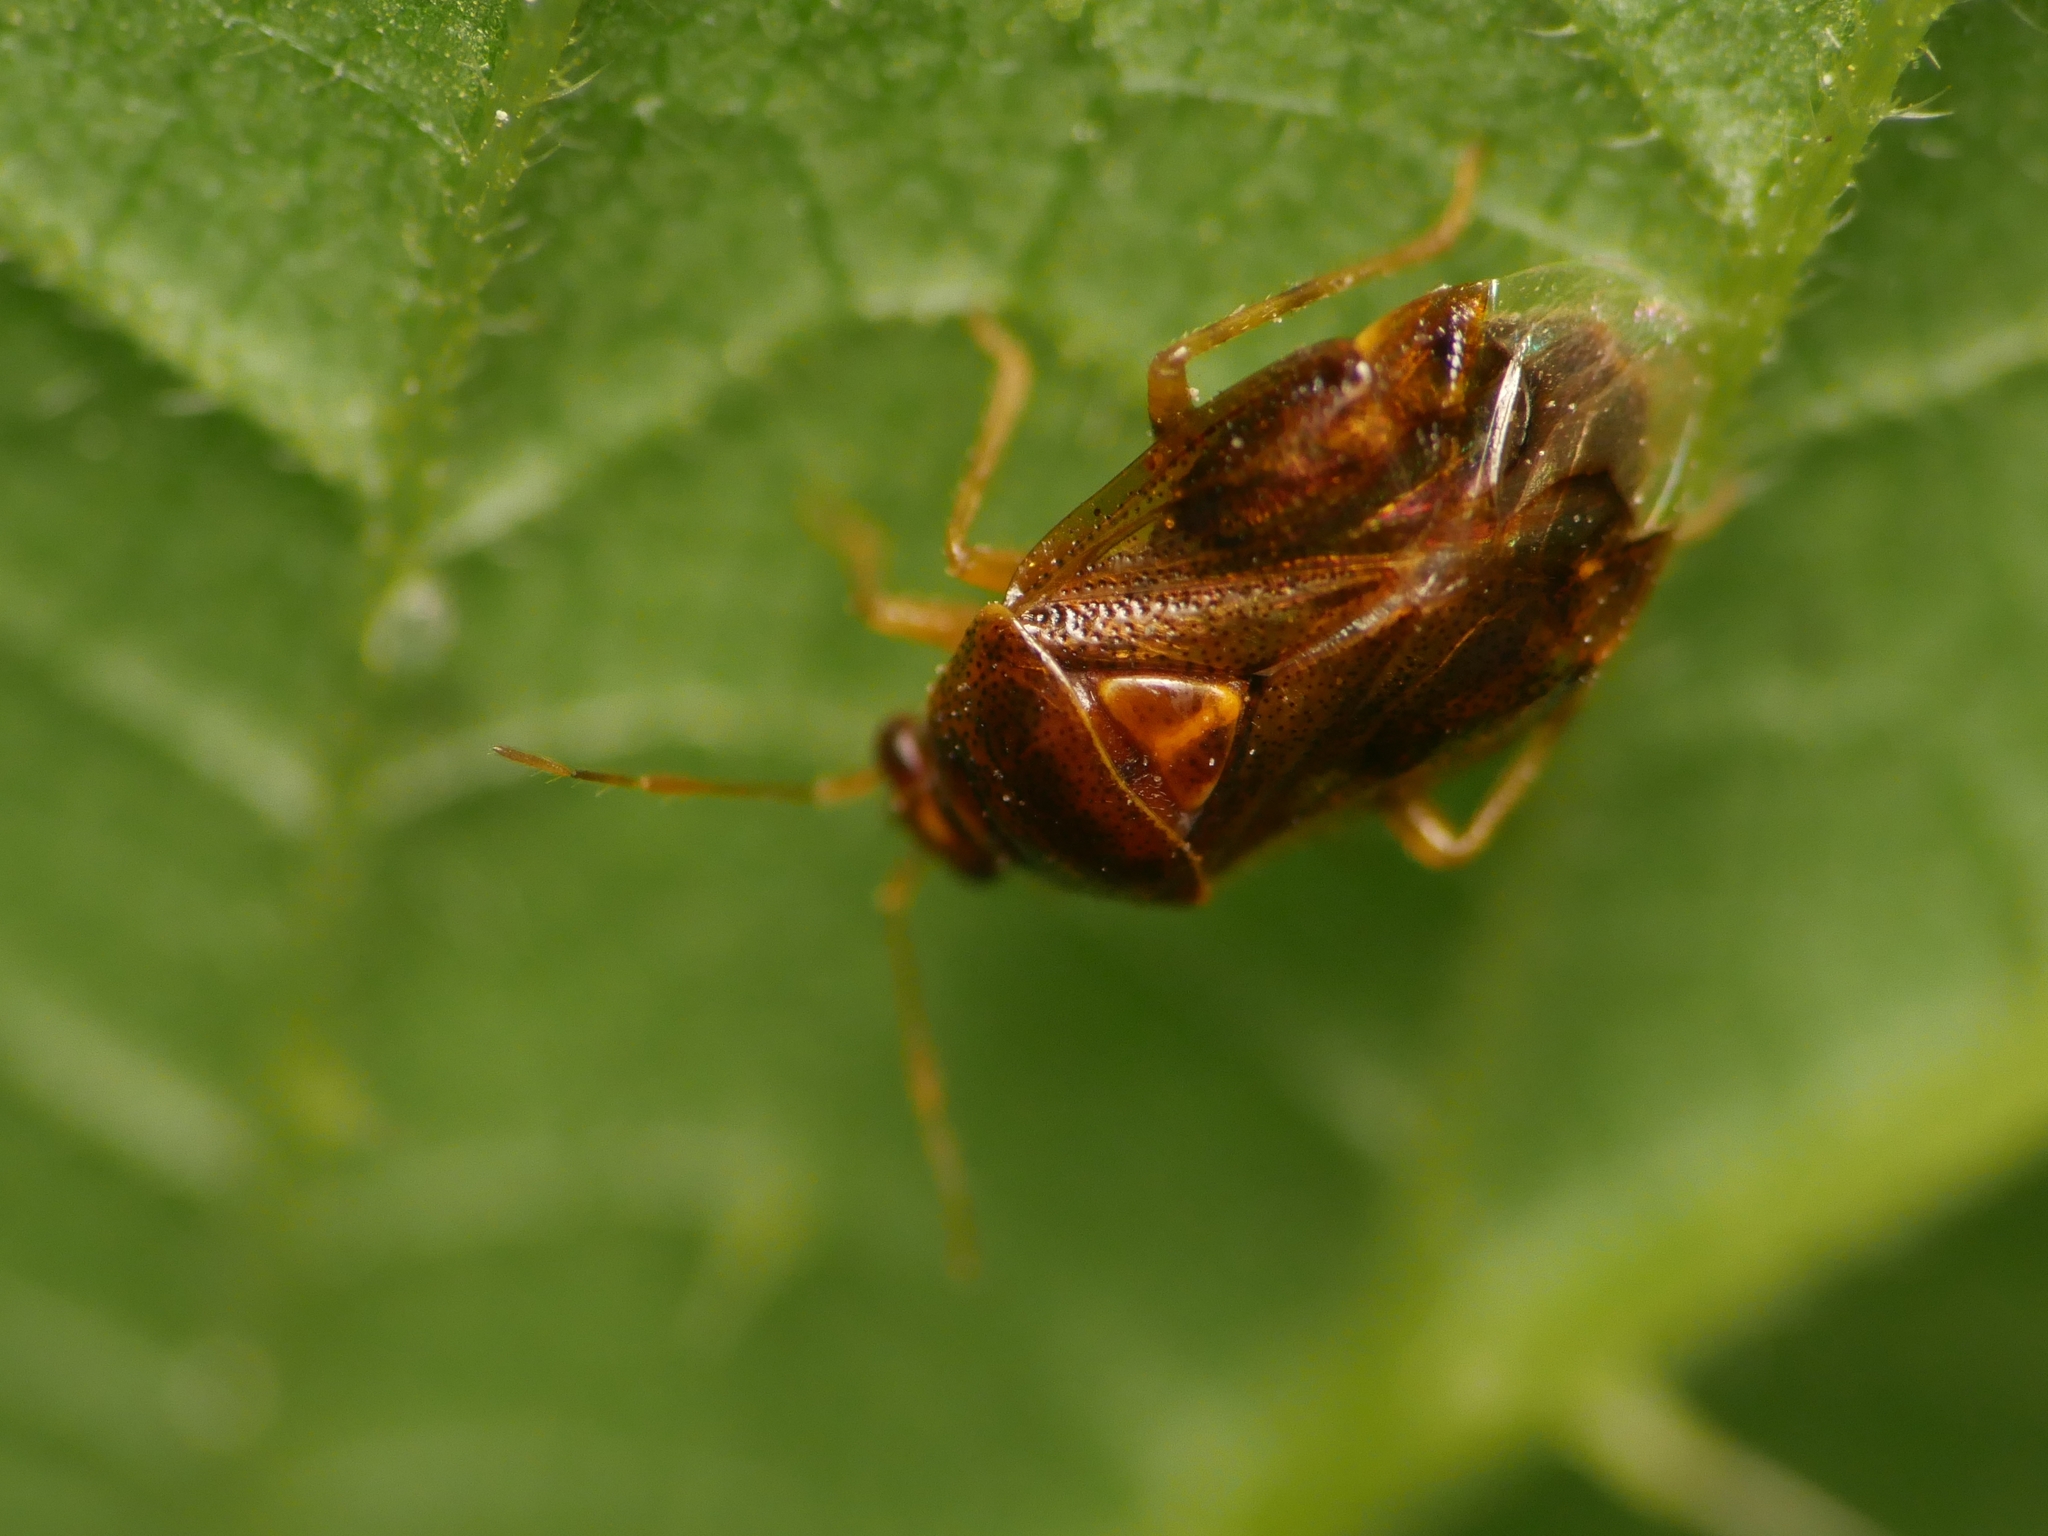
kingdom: Animalia
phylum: Arthropoda
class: Insecta
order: Hemiptera
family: Miridae
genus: Deraeocoris
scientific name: Deraeocoris lutescens
